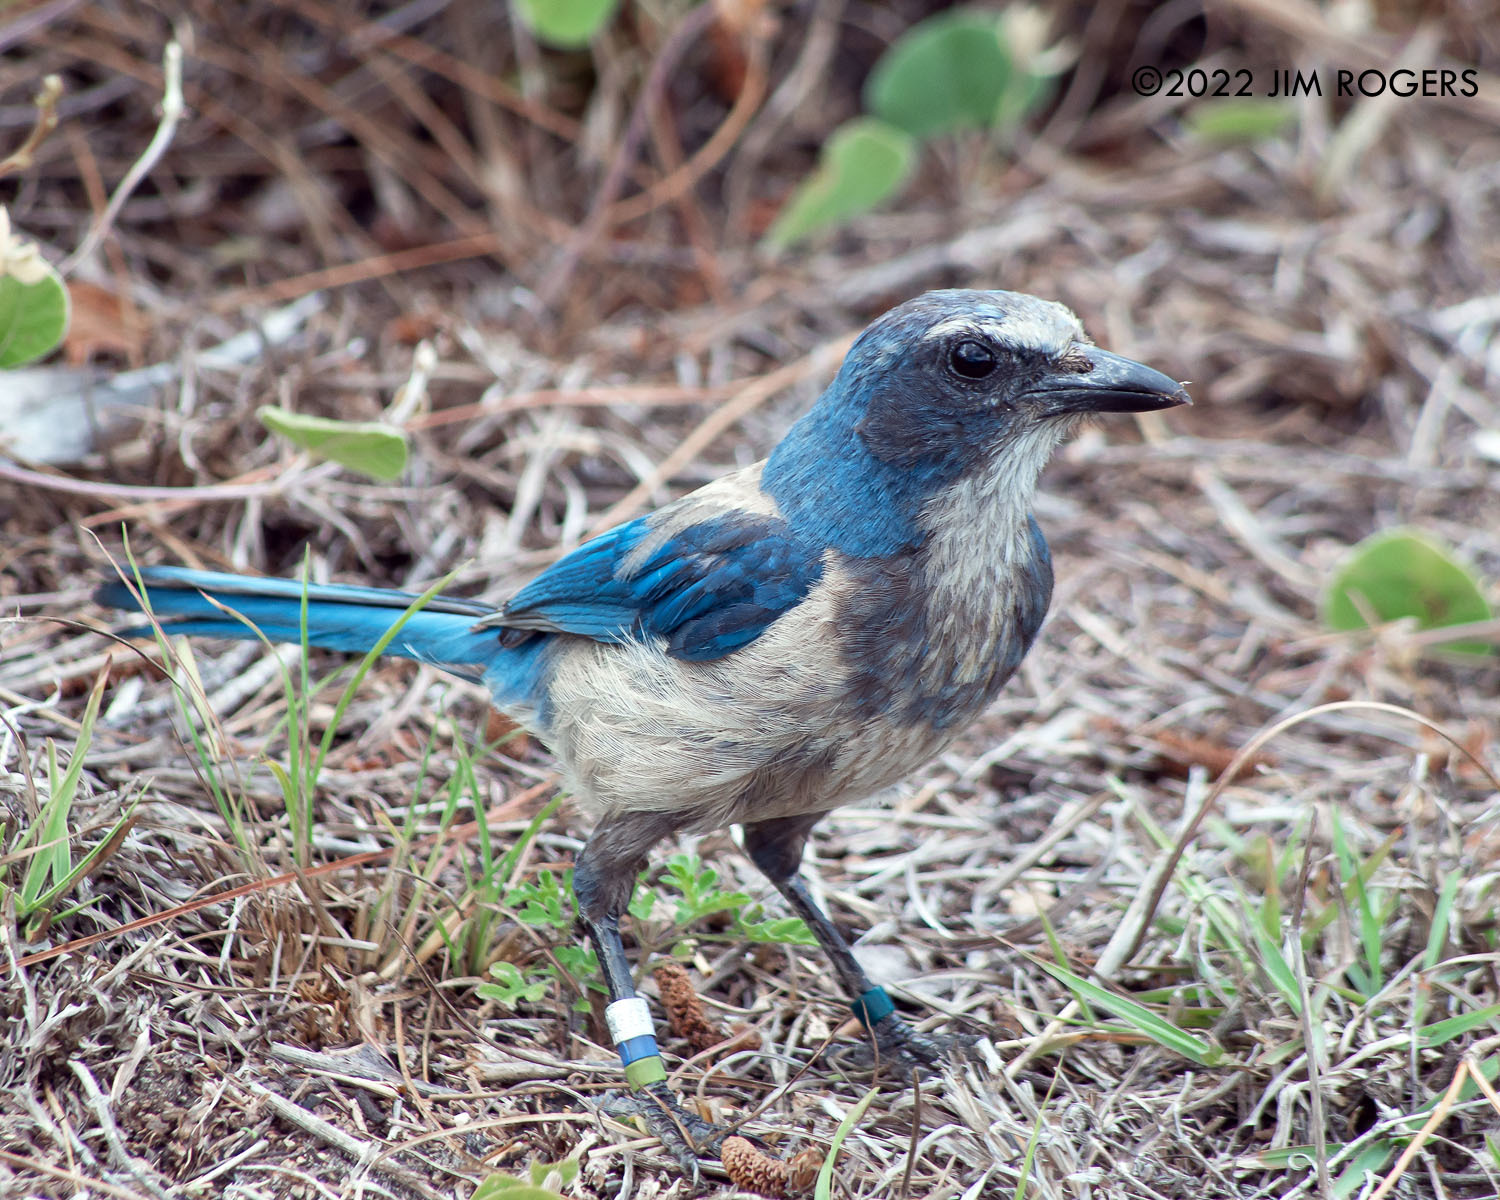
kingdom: Animalia
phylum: Chordata
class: Aves
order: Passeriformes
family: Corvidae
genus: Aphelocoma
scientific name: Aphelocoma coerulescens
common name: Florida scrub jay
